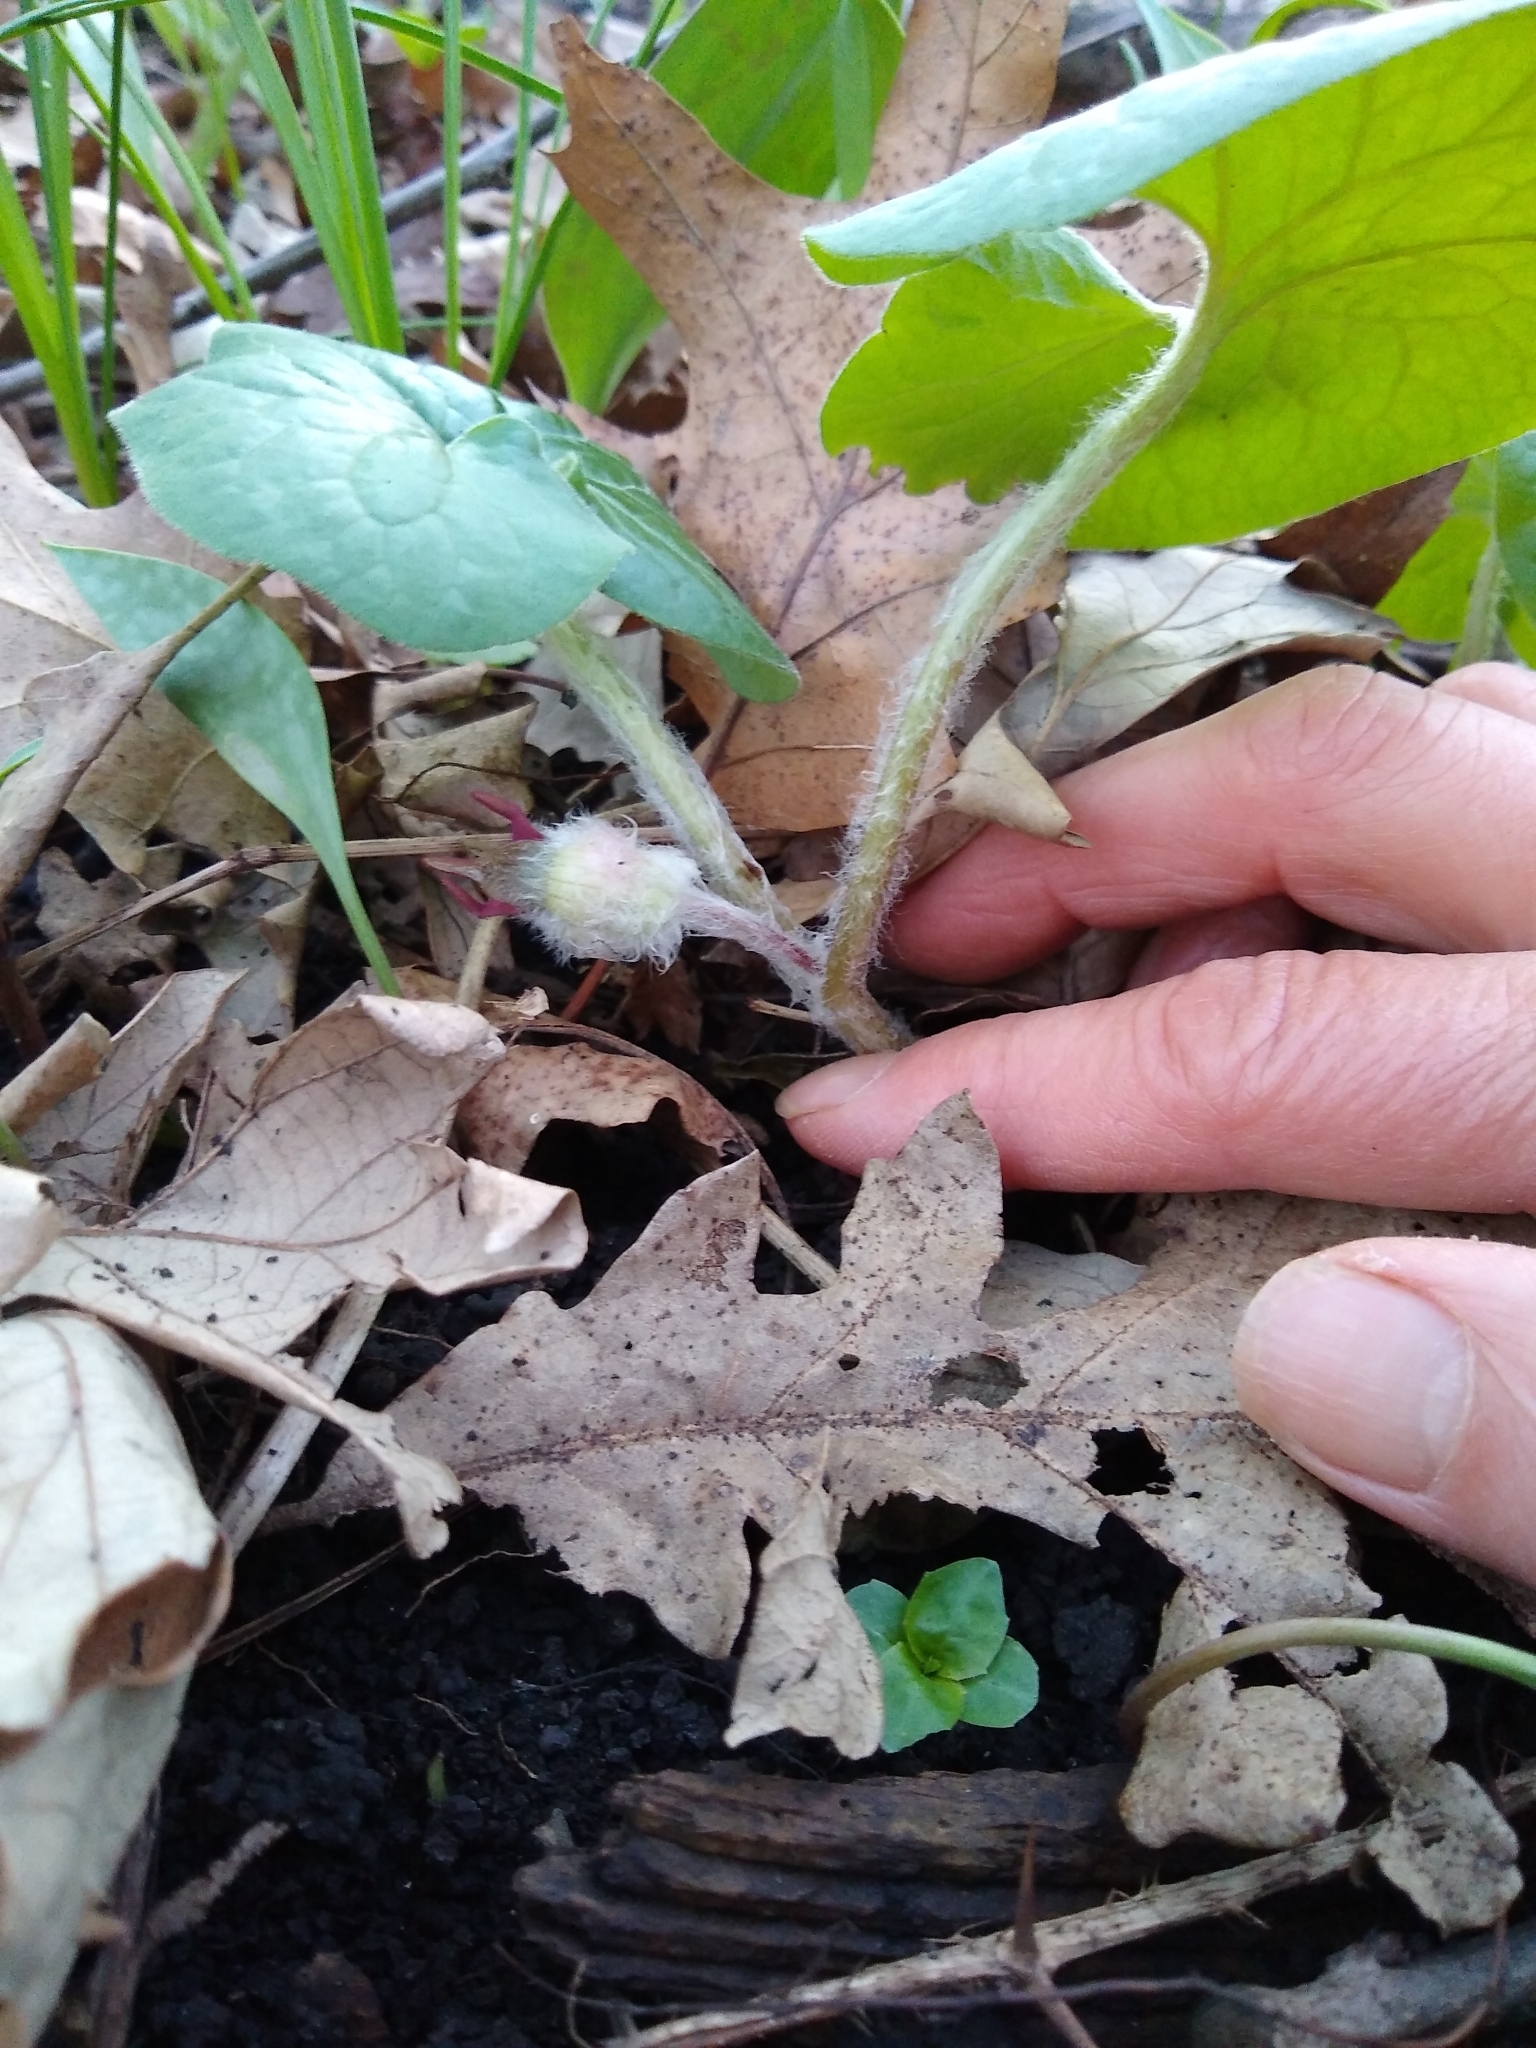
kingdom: Plantae
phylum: Tracheophyta
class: Magnoliopsida
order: Piperales
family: Aristolochiaceae
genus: Asarum
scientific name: Asarum canadense
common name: Wild ginger
